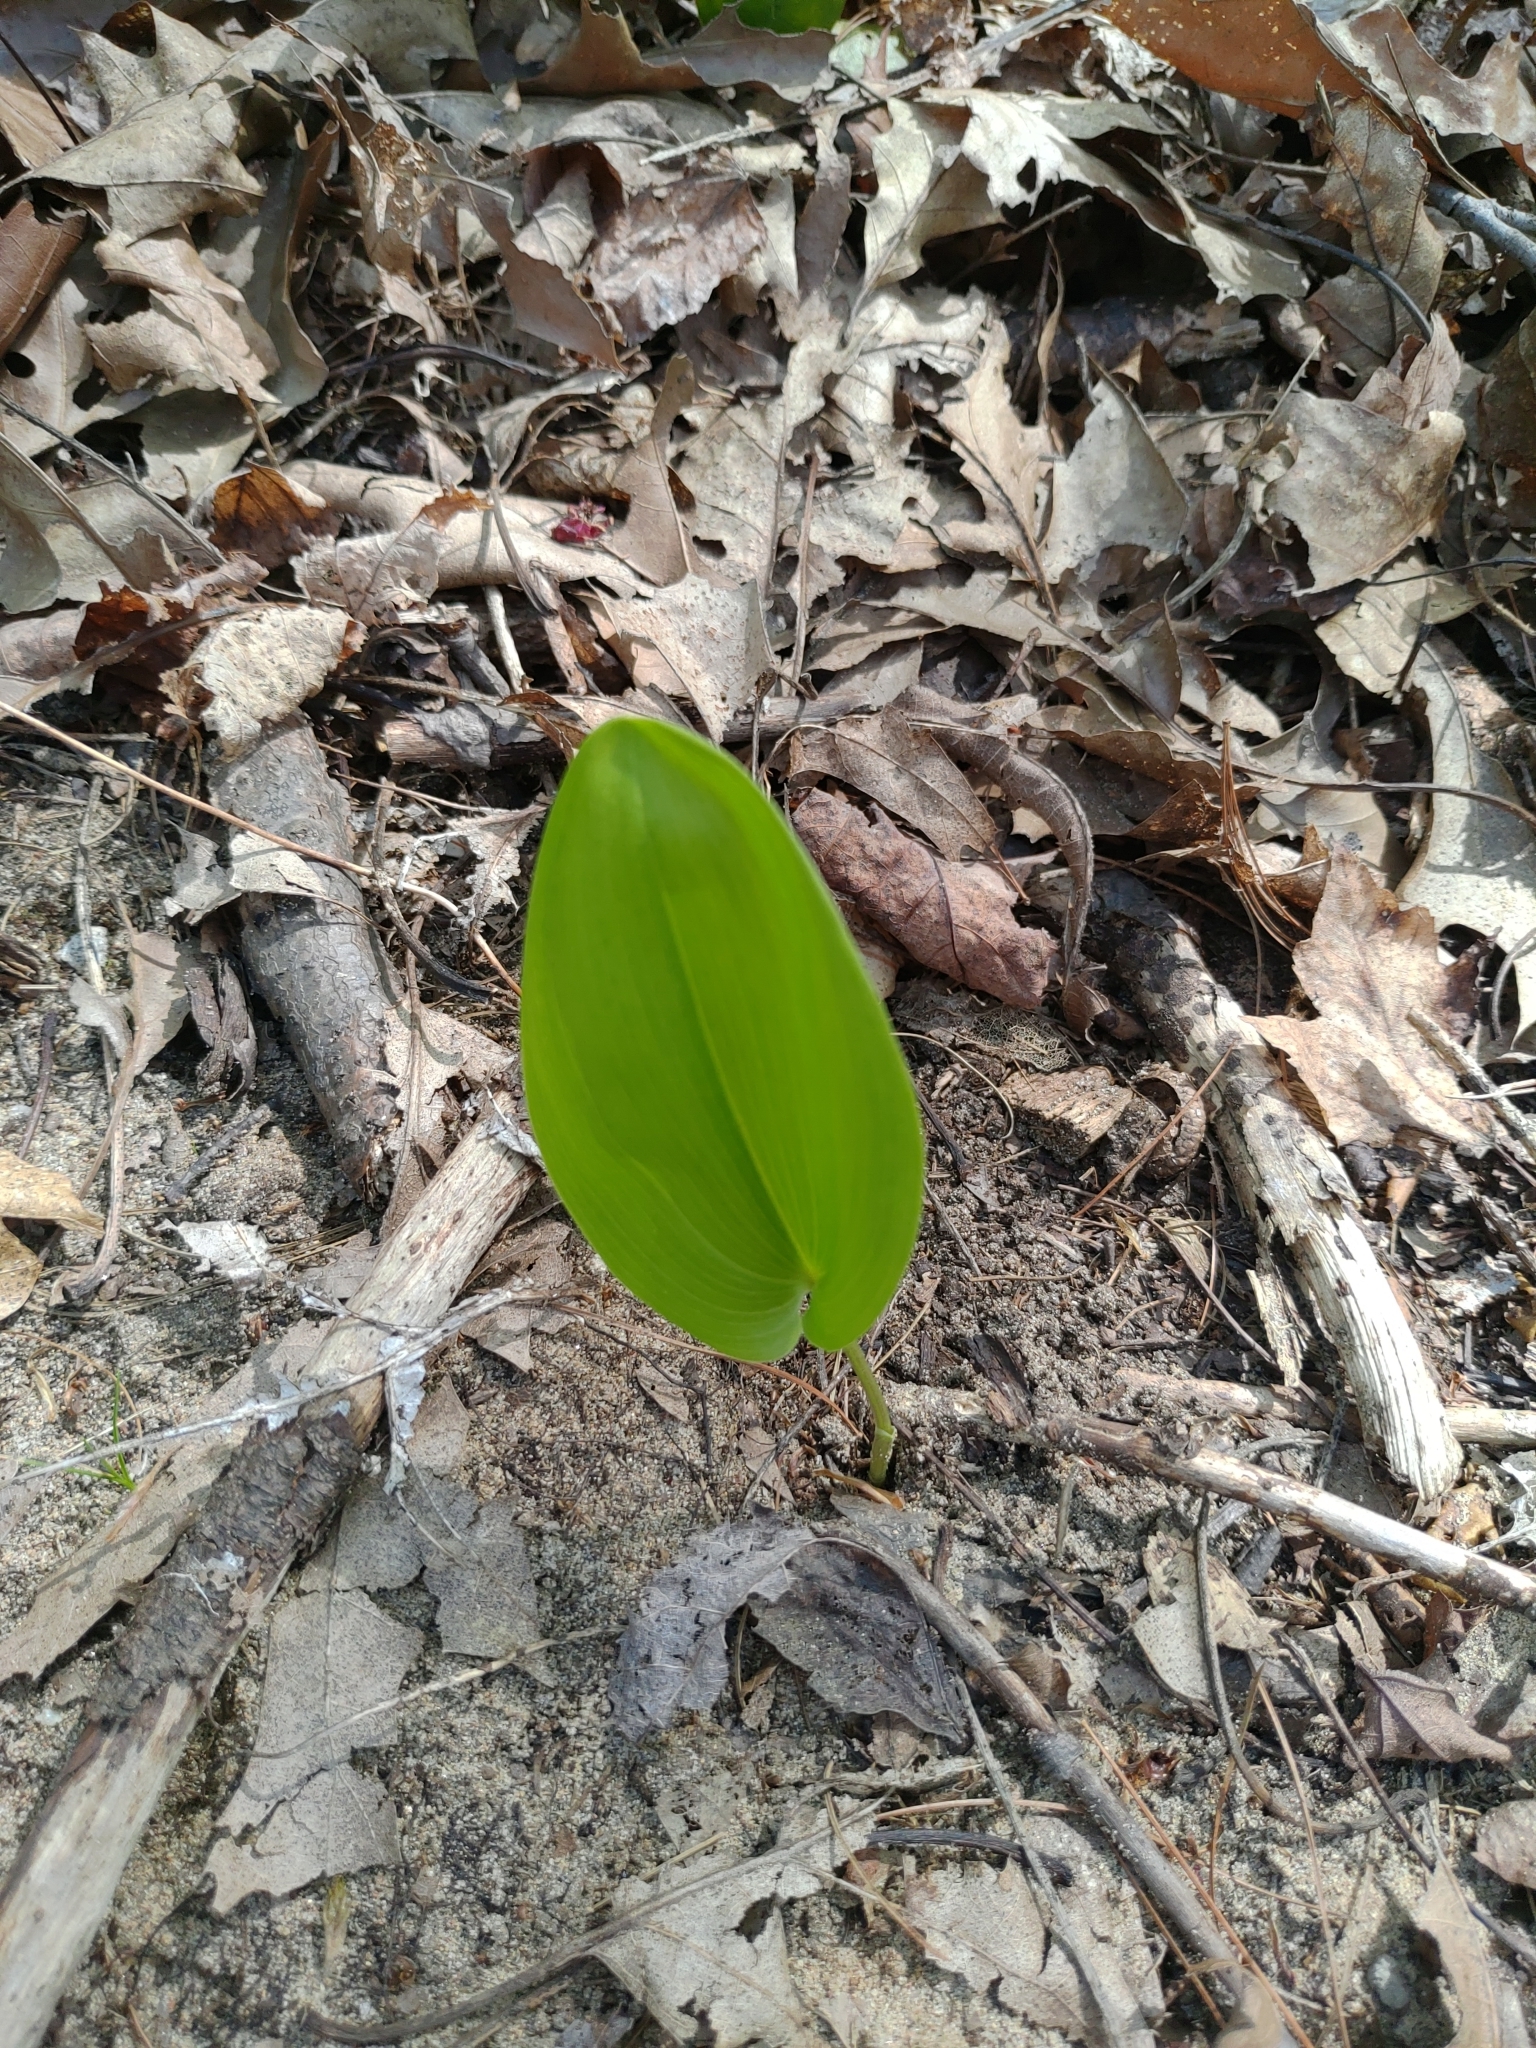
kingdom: Plantae
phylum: Tracheophyta
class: Liliopsida
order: Asparagales
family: Asparagaceae
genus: Maianthemum
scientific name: Maianthemum canadense
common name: False lily-of-the-valley
